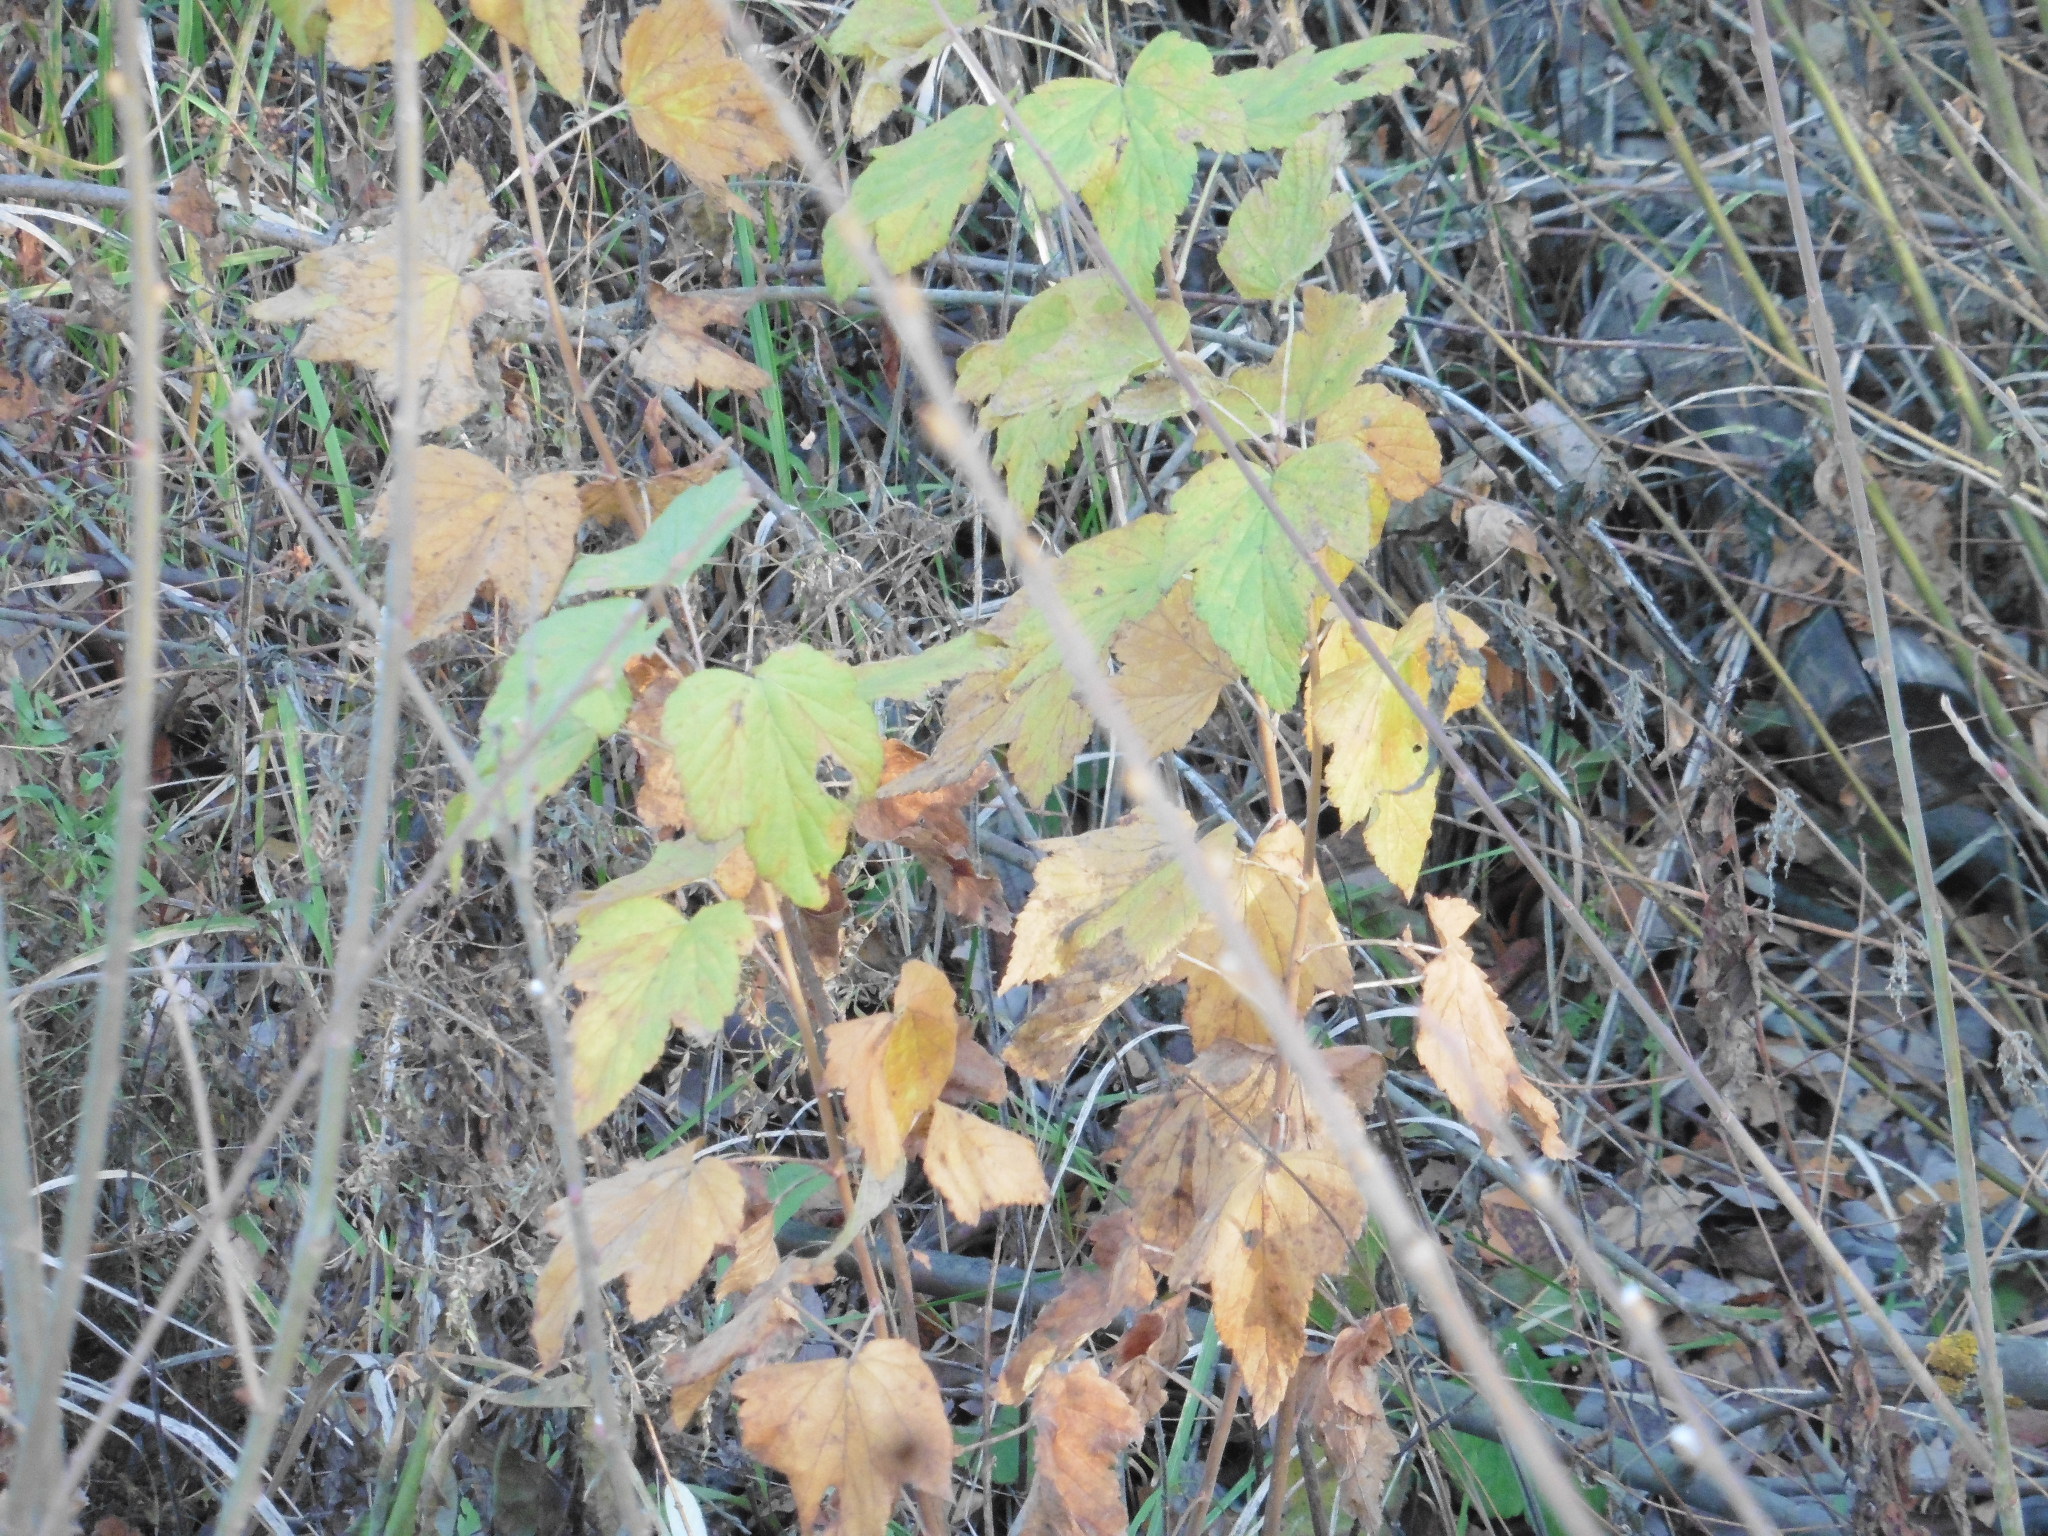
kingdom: Plantae
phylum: Tracheophyta
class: Magnoliopsida
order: Saxifragales
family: Grossulariaceae
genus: Ribes
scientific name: Ribes nigrum
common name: Black currant
